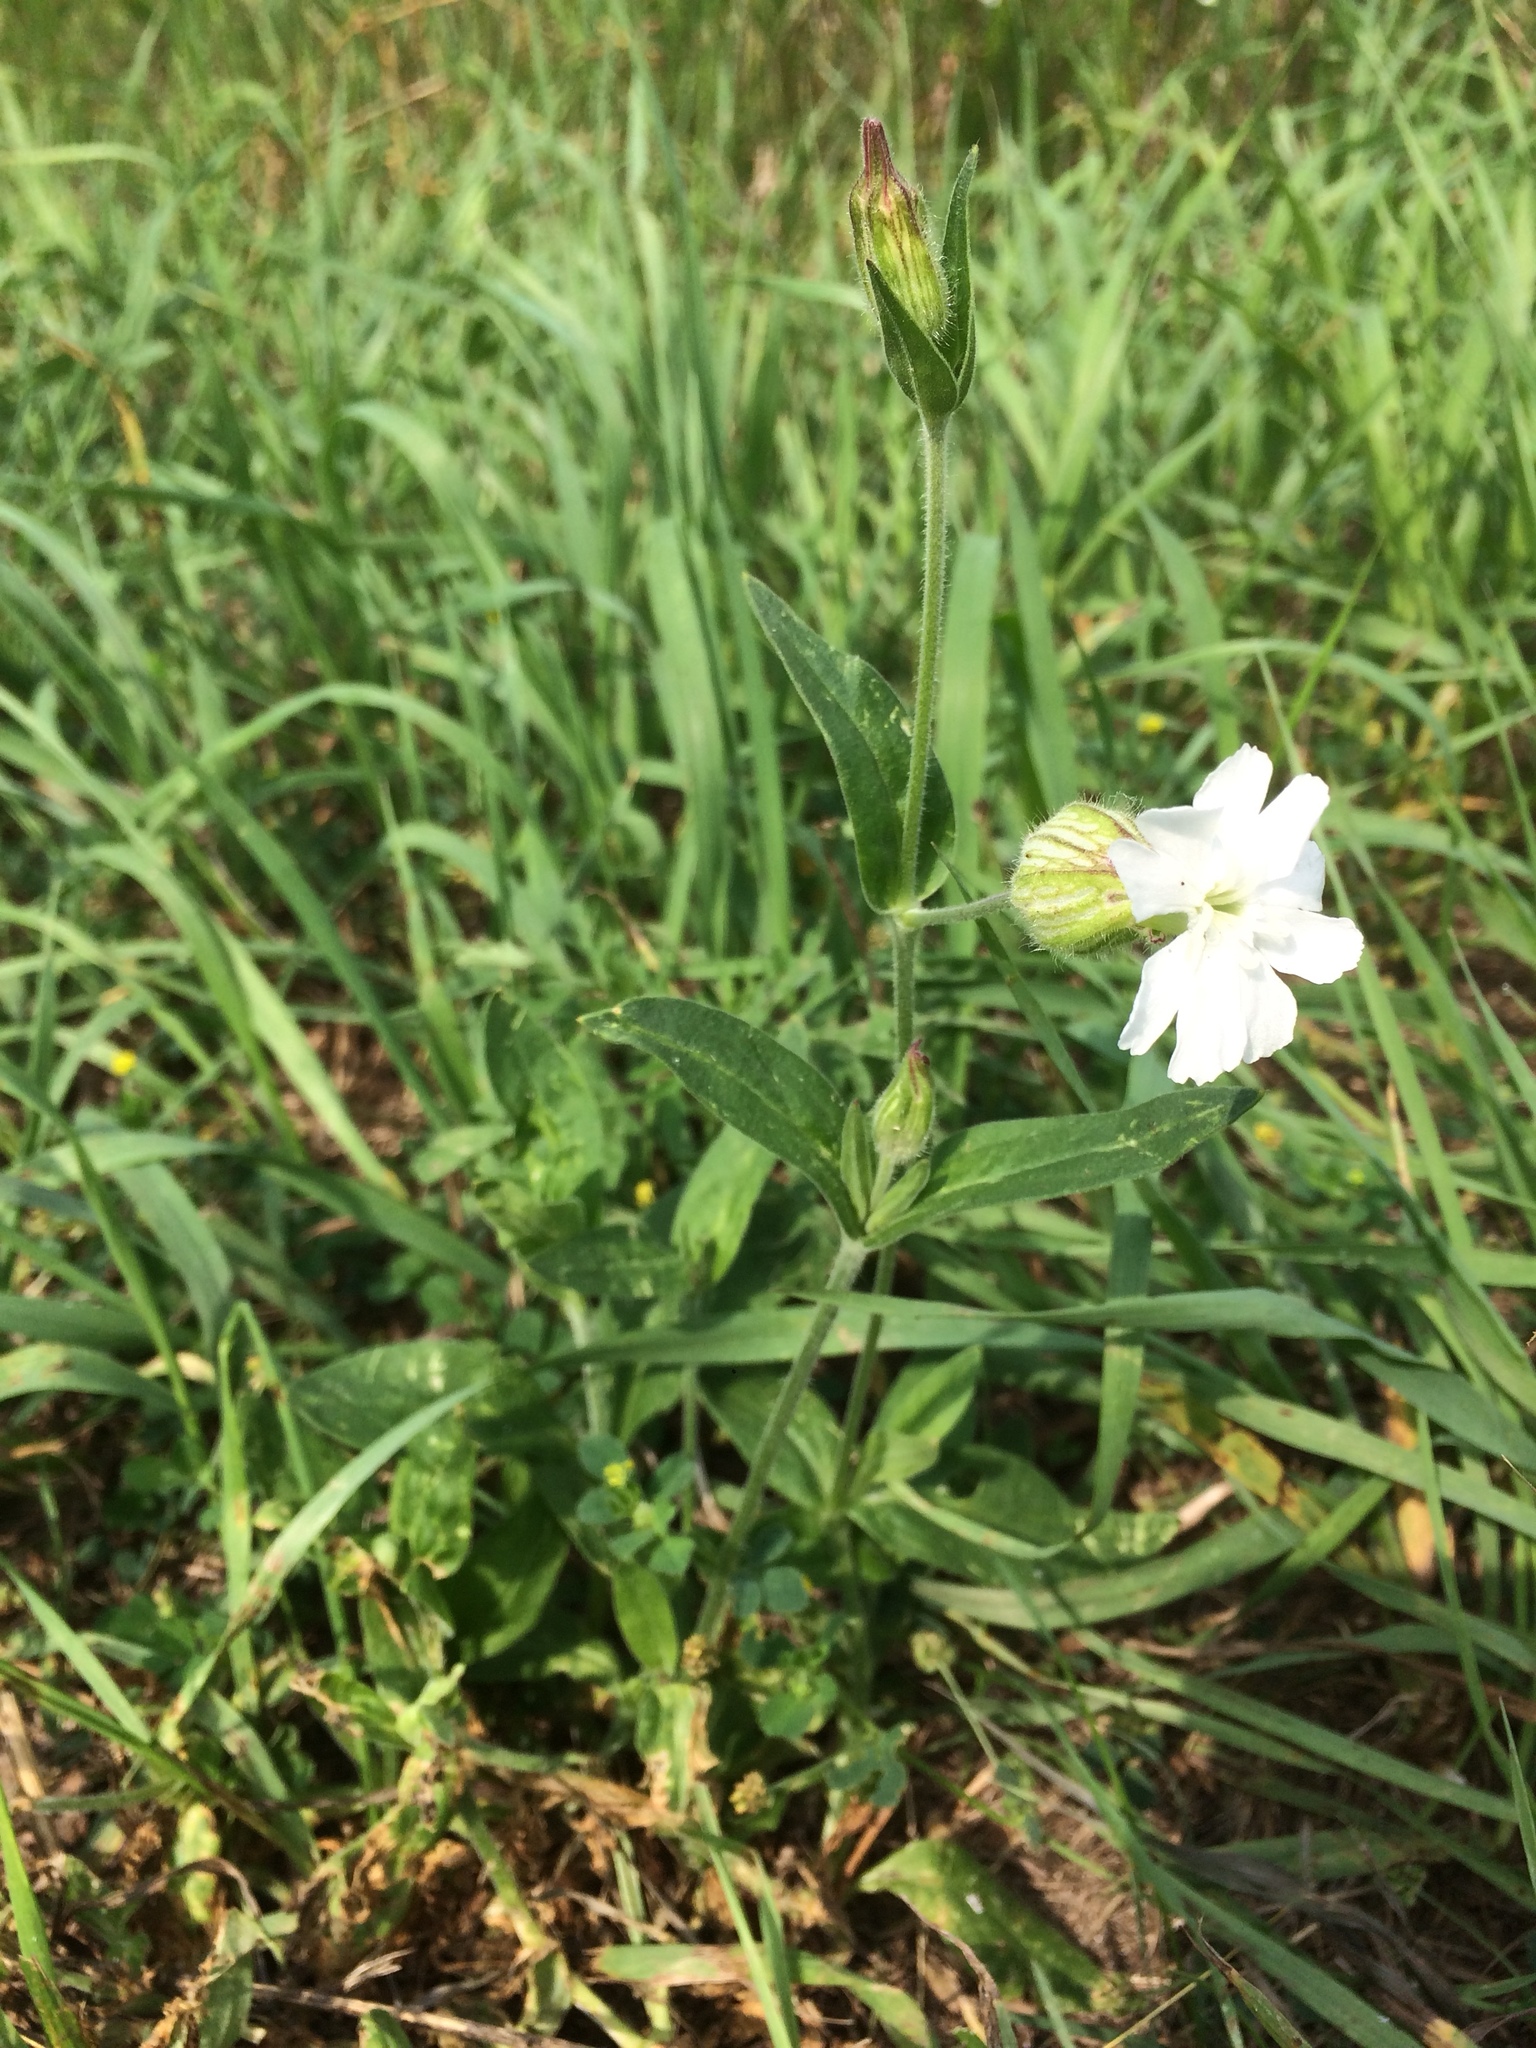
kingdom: Plantae
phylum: Tracheophyta
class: Magnoliopsida
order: Caryophyllales
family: Caryophyllaceae
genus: Silene
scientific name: Silene latifolia
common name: White campion
